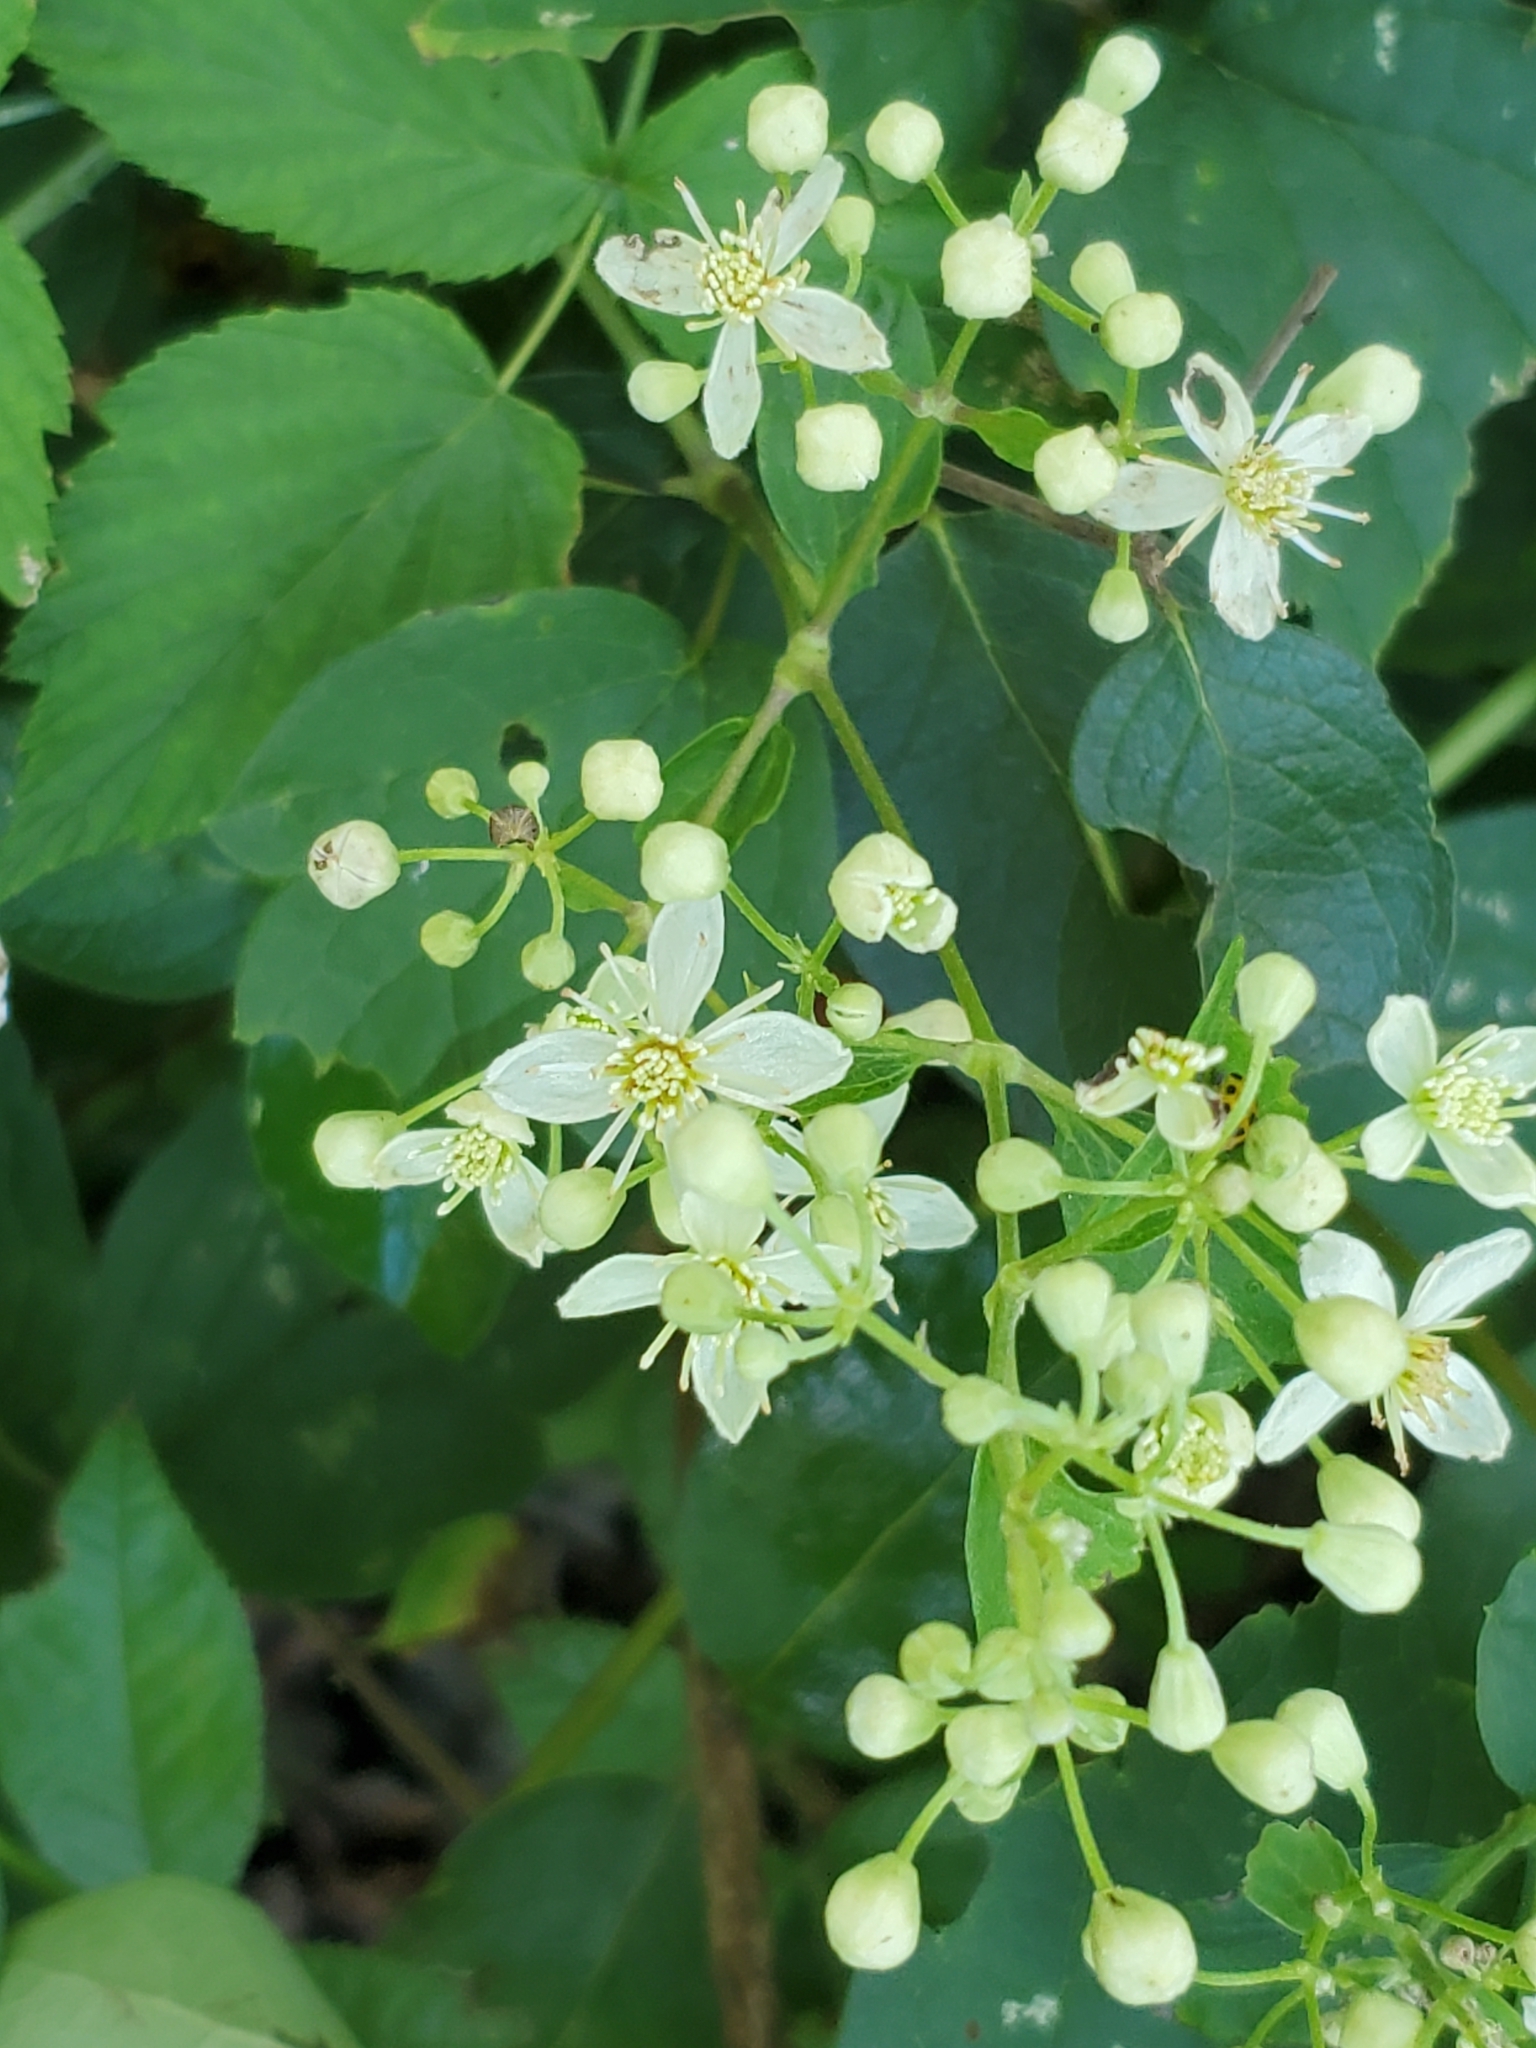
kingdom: Plantae
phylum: Tracheophyta
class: Magnoliopsida
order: Ranunculales
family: Ranunculaceae
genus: Clematis
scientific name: Clematis virginiana
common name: Virgin's-bower
